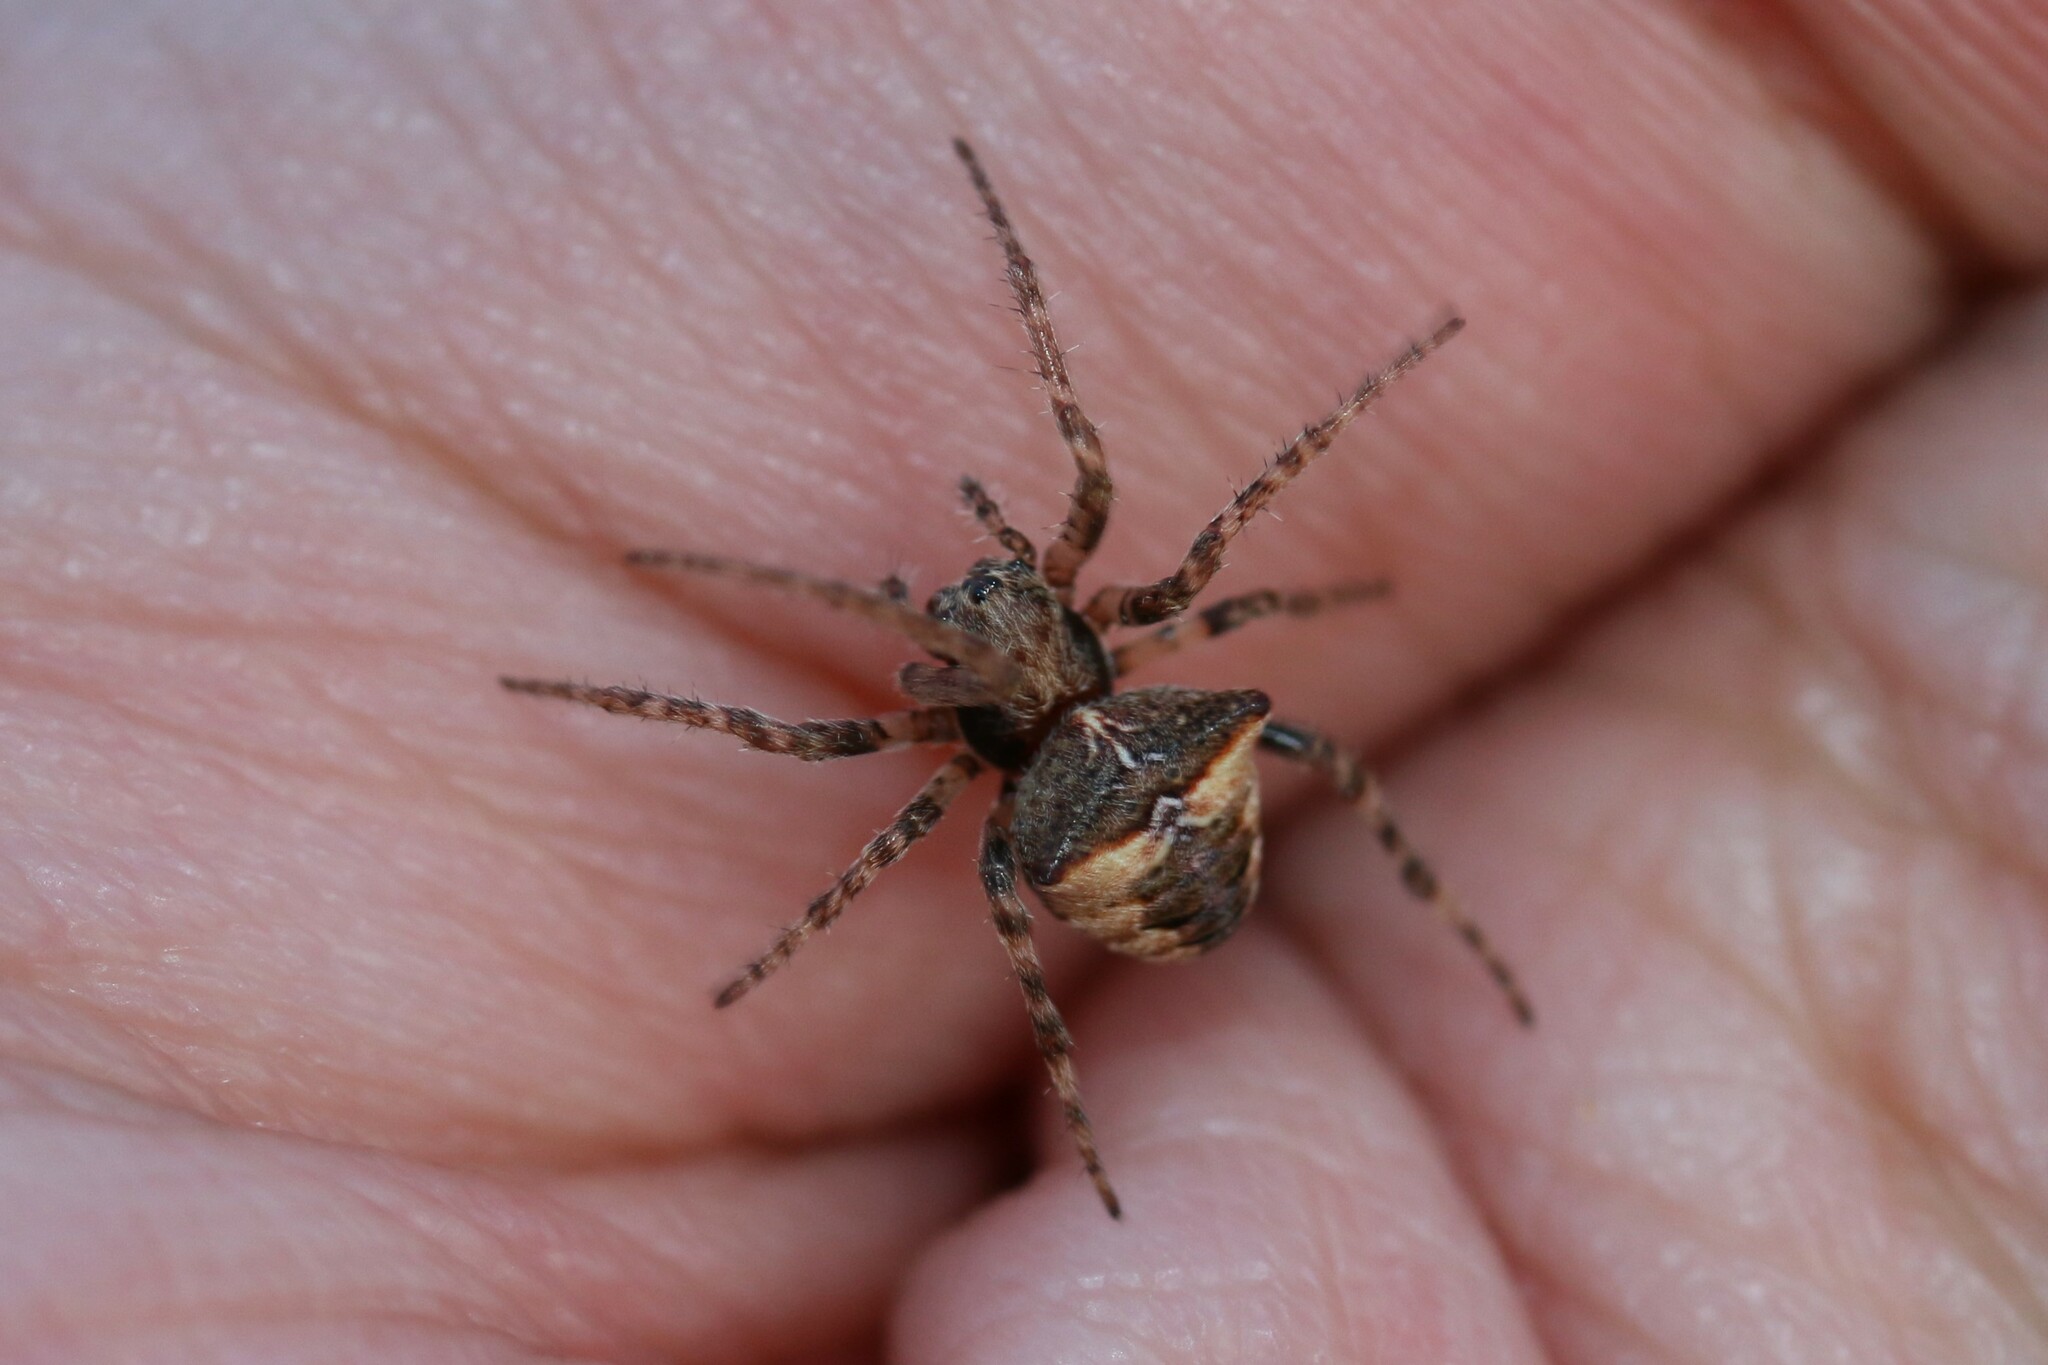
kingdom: Animalia
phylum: Arthropoda
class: Arachnida
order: Araneae
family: Araneidae
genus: Gibbaranea
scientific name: Gibbaranea bituberculata
